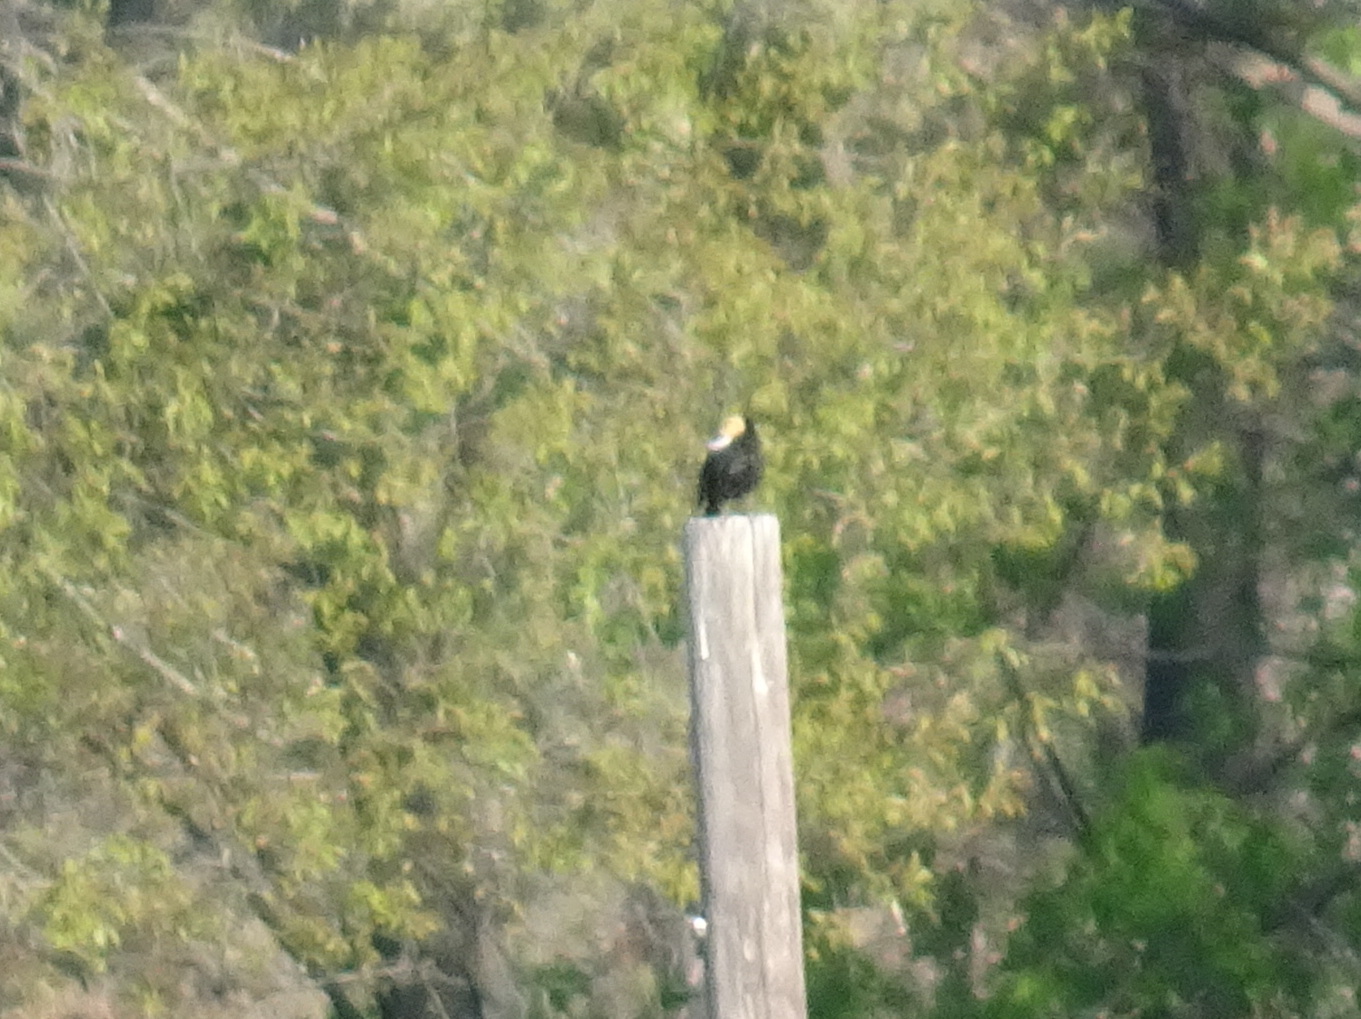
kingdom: Animalia
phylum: Chordata
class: Aves
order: Passeriformes
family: Icteridae
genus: Dolichonyx
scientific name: Dolichonyx oryzivorus
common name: Bobolink
